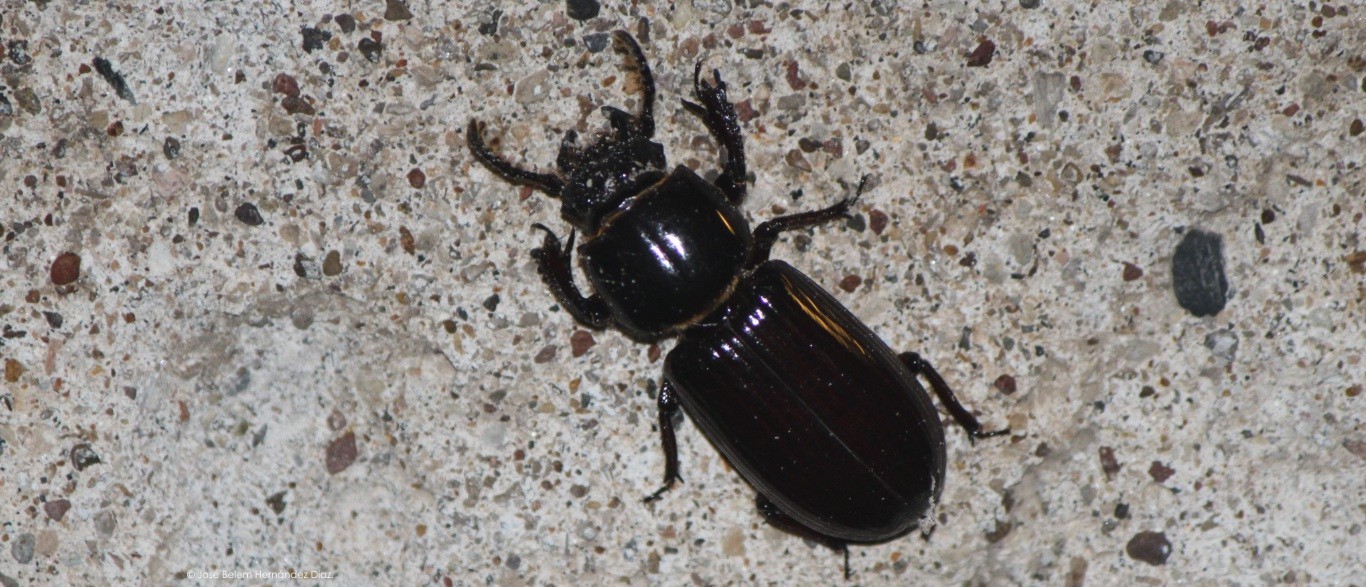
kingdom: Animalia
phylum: Arthropoda
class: Insecta
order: Coleoptera
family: Passalidae
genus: Ptichopus
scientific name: Ptichopus angulatus
